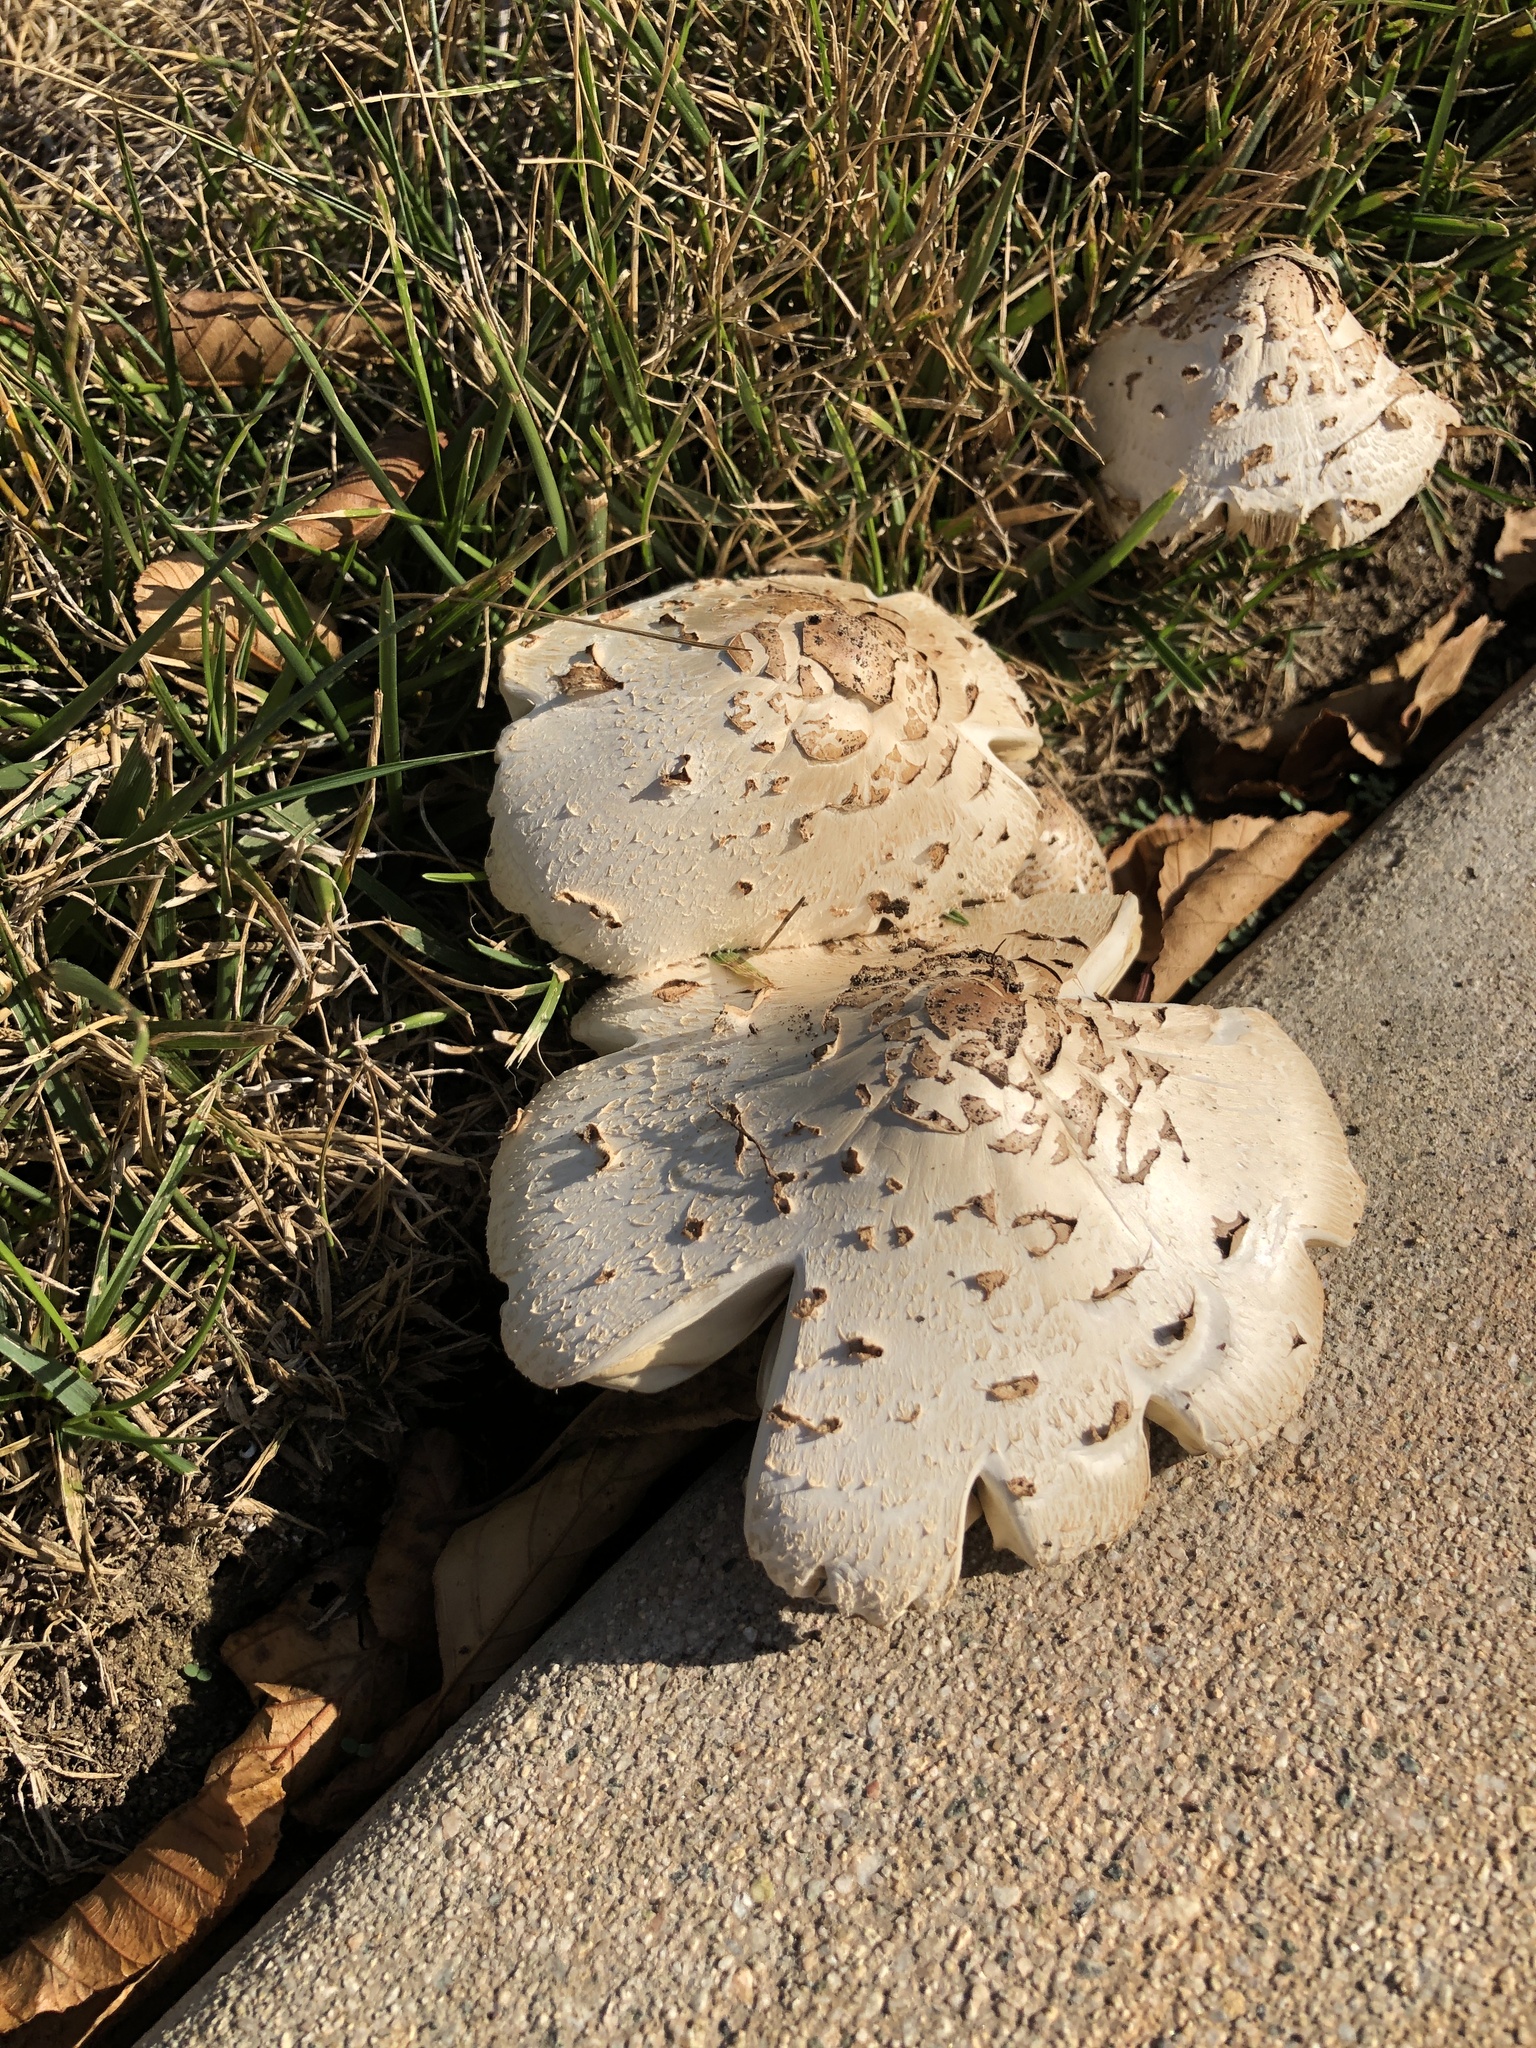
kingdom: Fungi
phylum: Basidiomycota
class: Agaricomycetes
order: Agaricales
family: Agaricaceae
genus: Chlorophyllum
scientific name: Chlorophyllum molybdites
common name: False parasol
